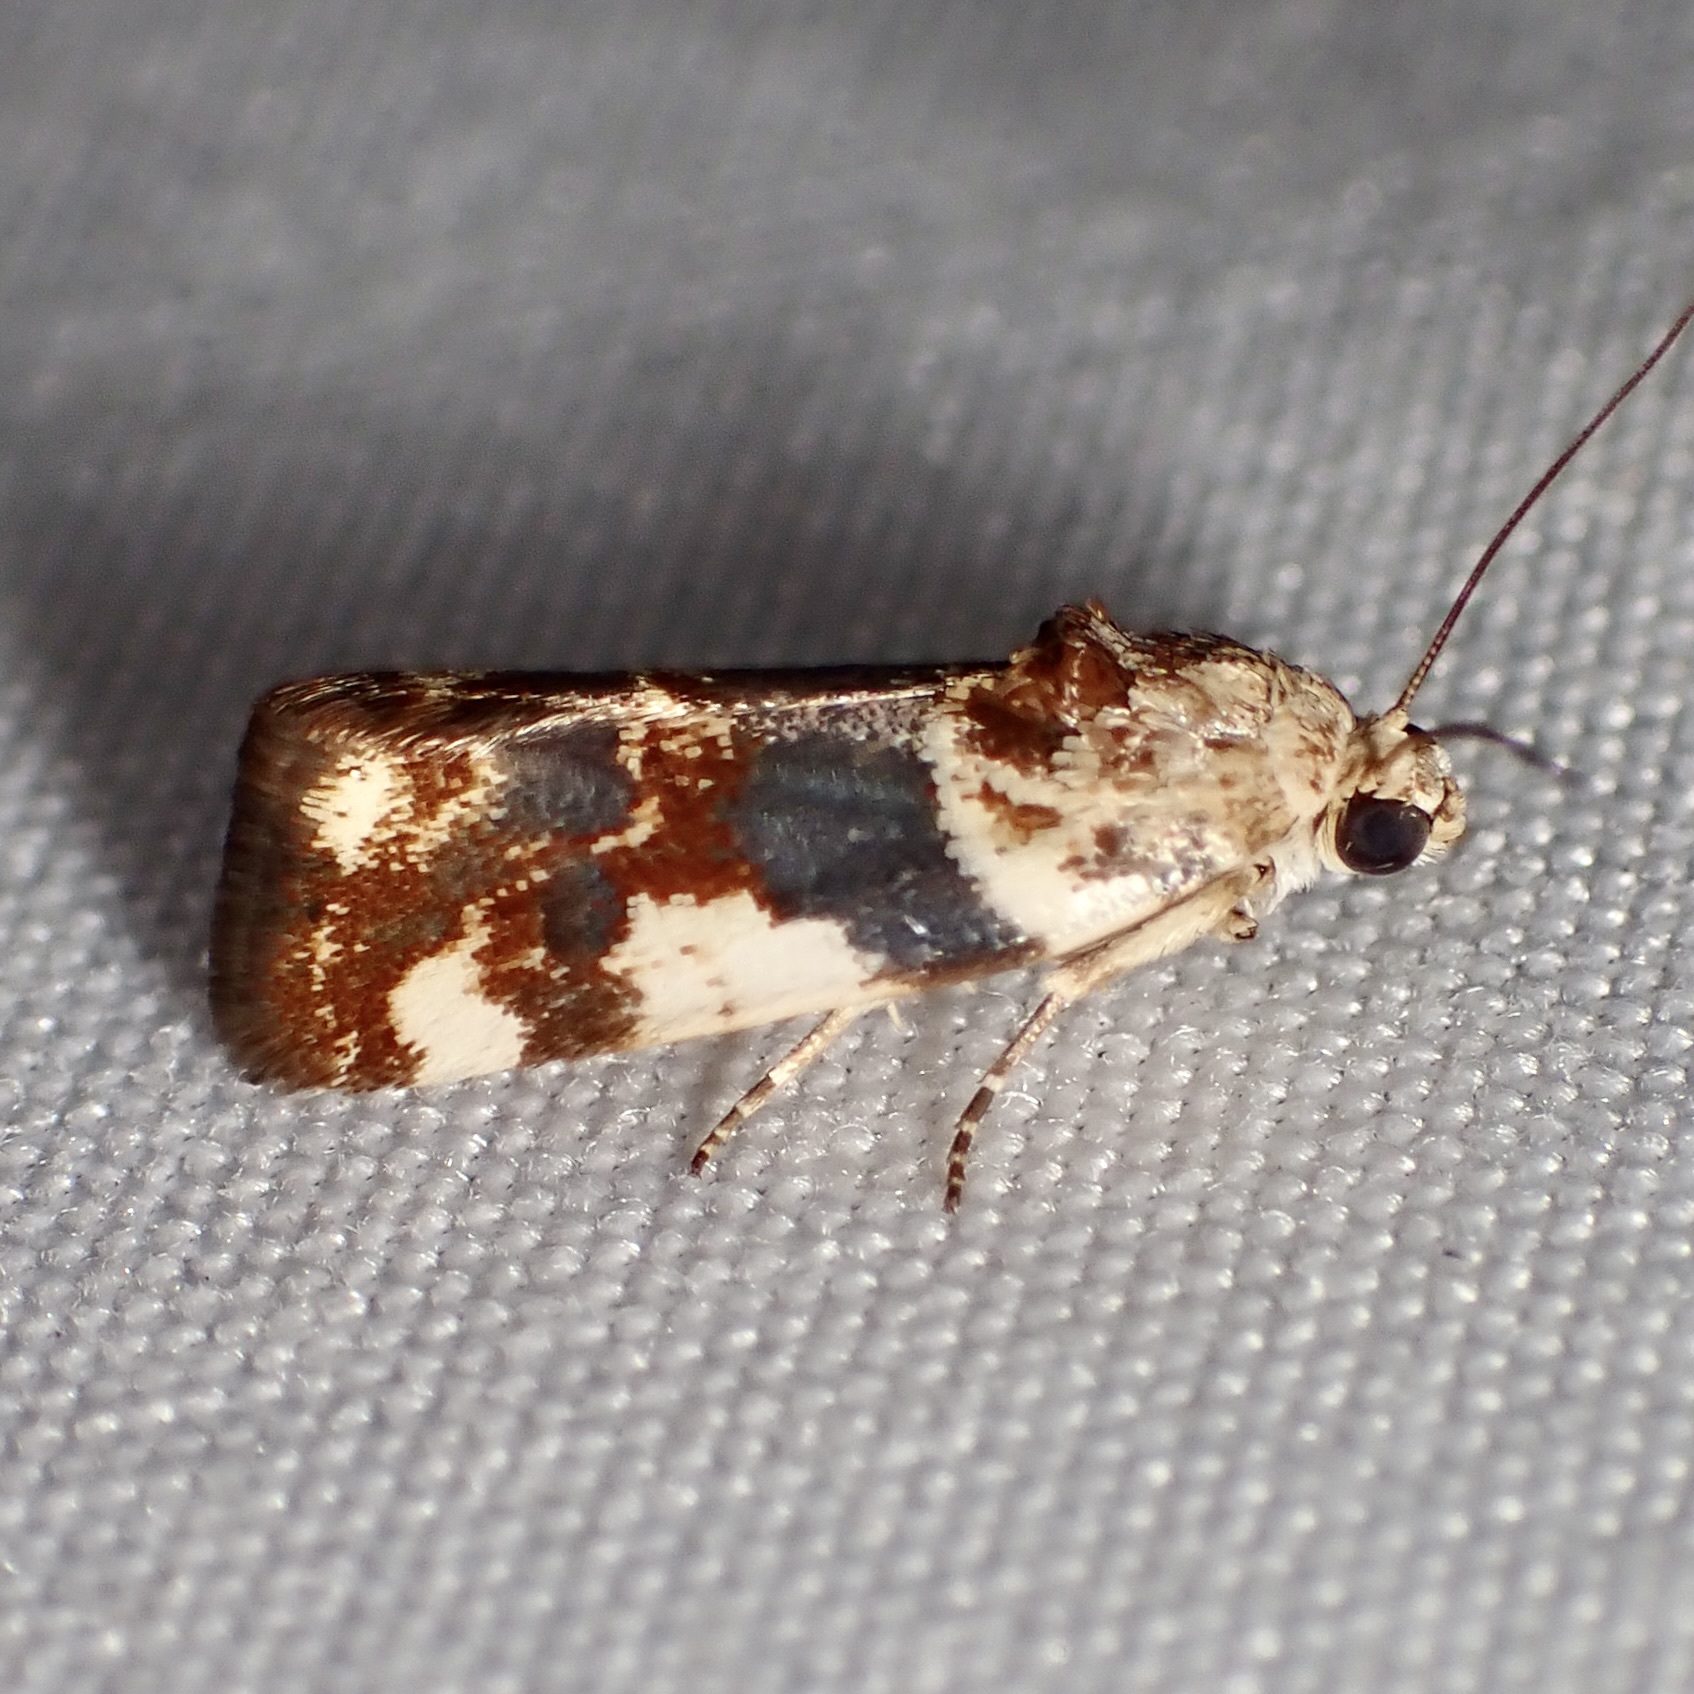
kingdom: Animalia
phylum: Arthropoda
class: Insecta
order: Lepidoptera
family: Noctuidae
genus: Acontia
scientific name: Acontia obatra
